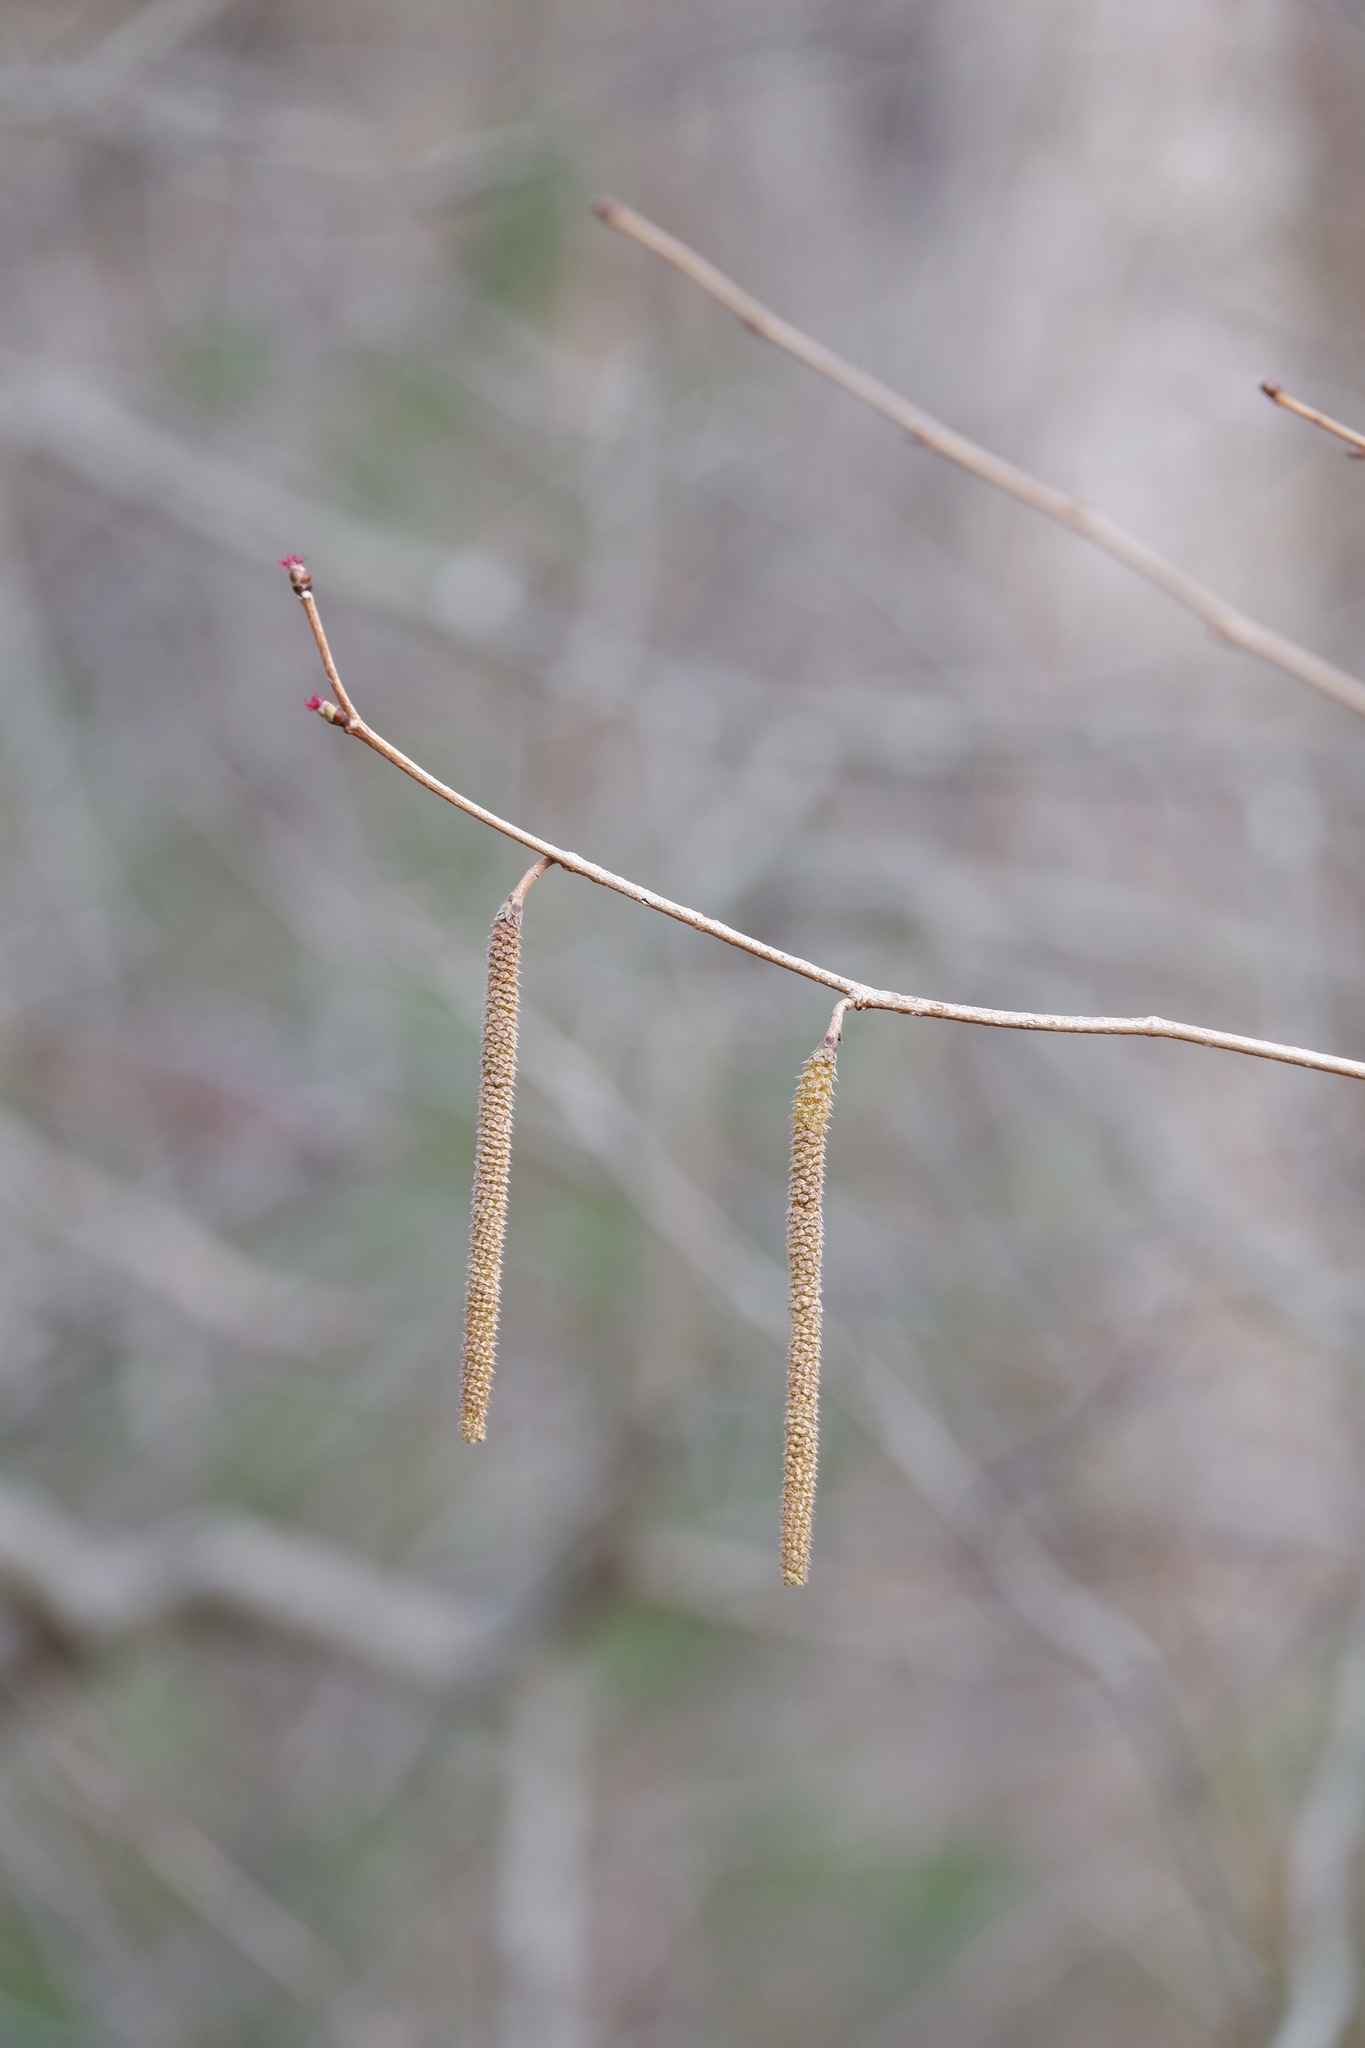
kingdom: Plantae
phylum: Tracheophyta
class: Magnoliopsida
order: Fagales
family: Betulaceae
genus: Corylus
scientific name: Corylus americana
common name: American hazel
